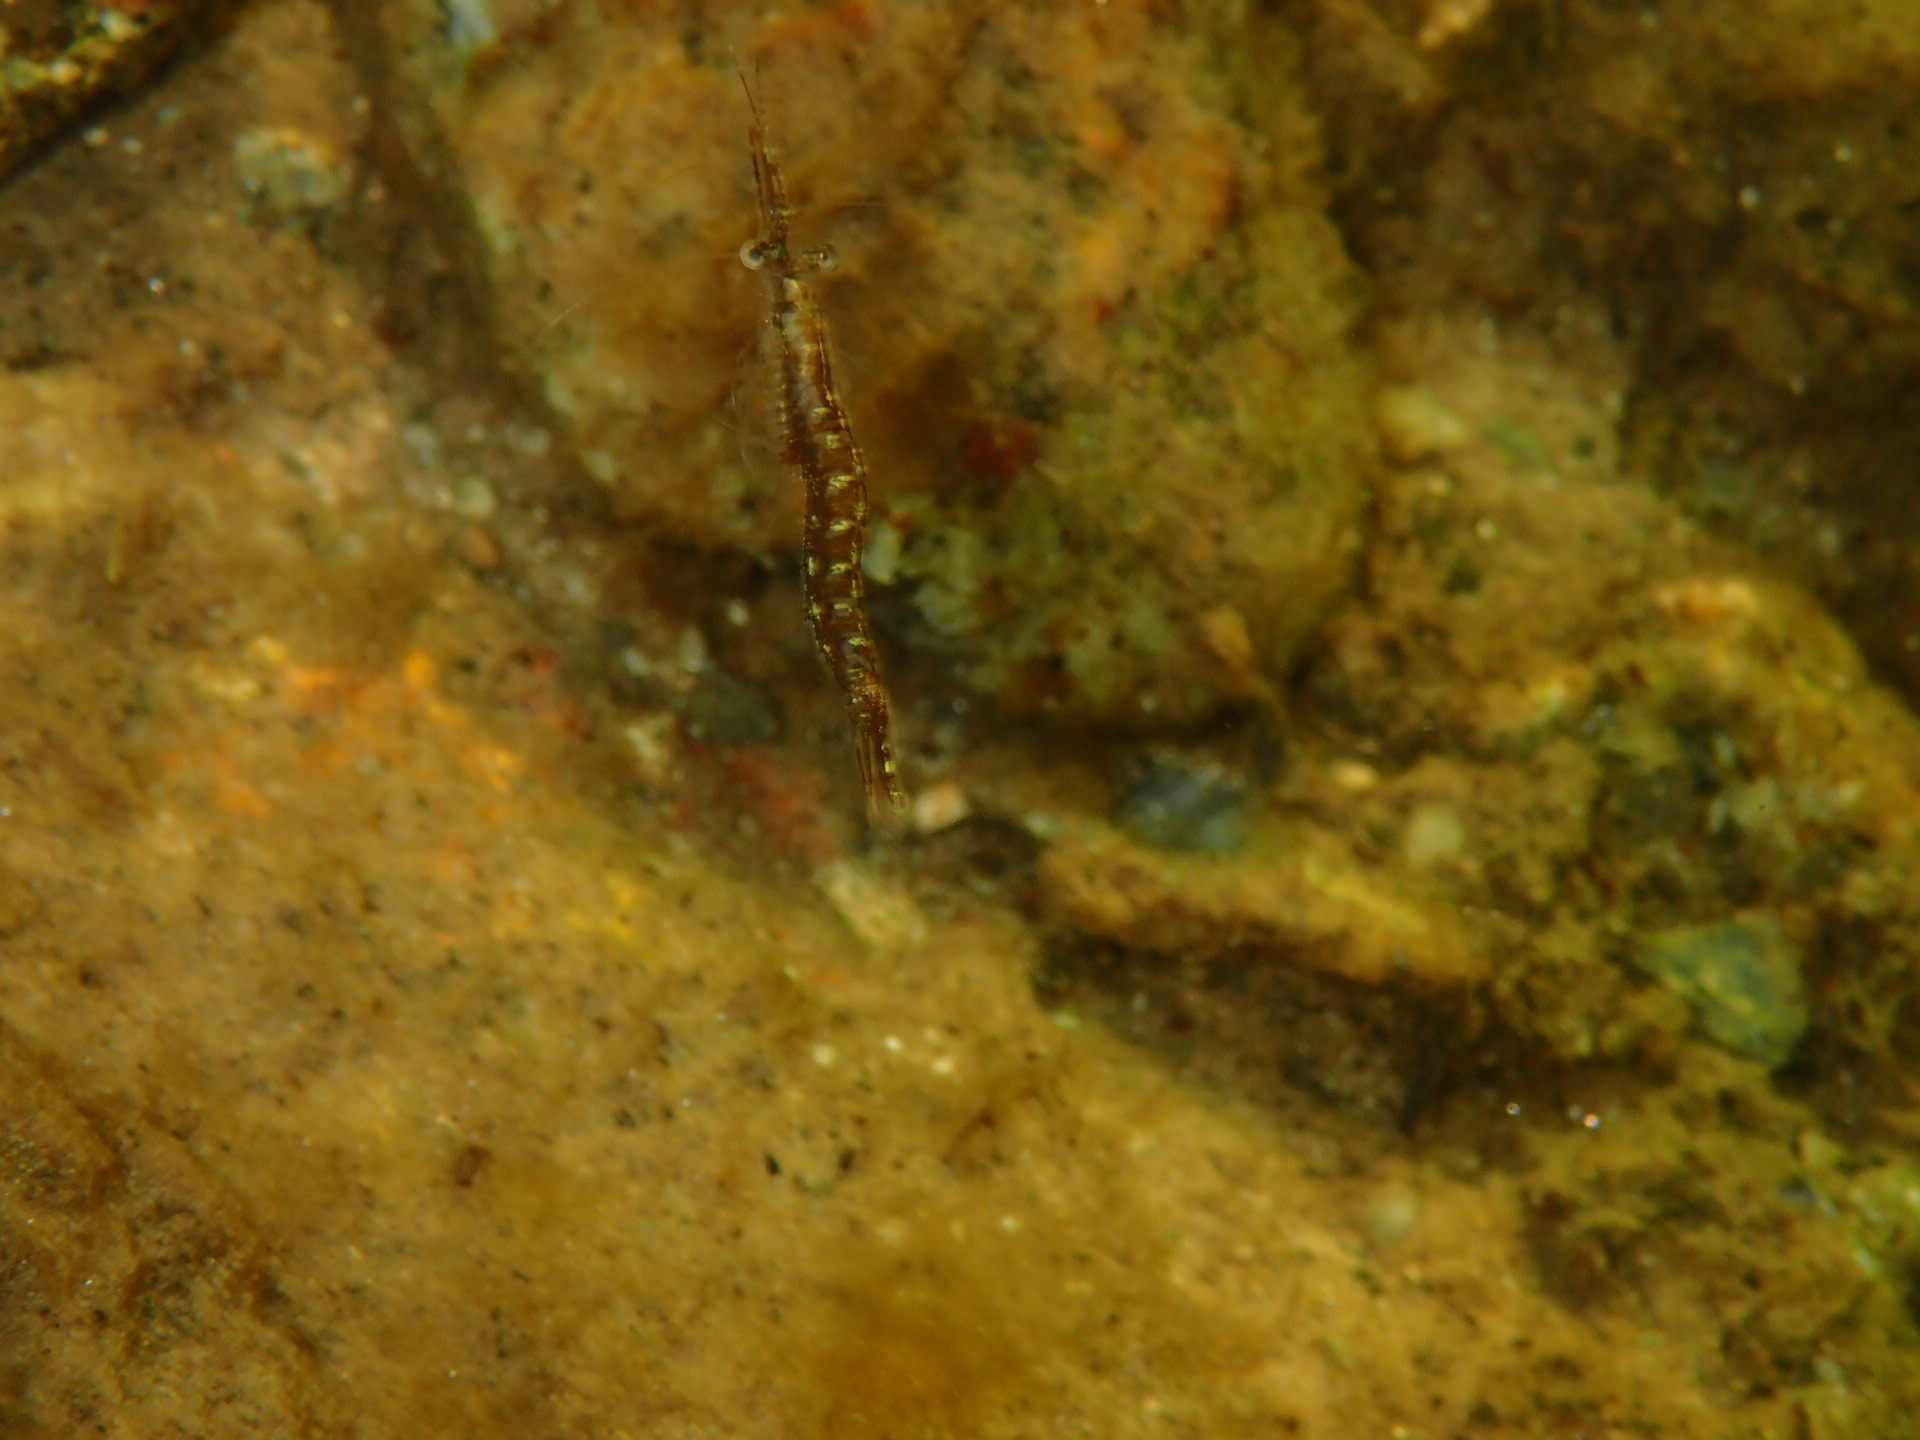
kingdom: Animalia
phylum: Arthropoda
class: Malacostraca
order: Mysida
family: Mysidae
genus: Praunus
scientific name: Praunus flexuosus
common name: Chameleon shrimp
